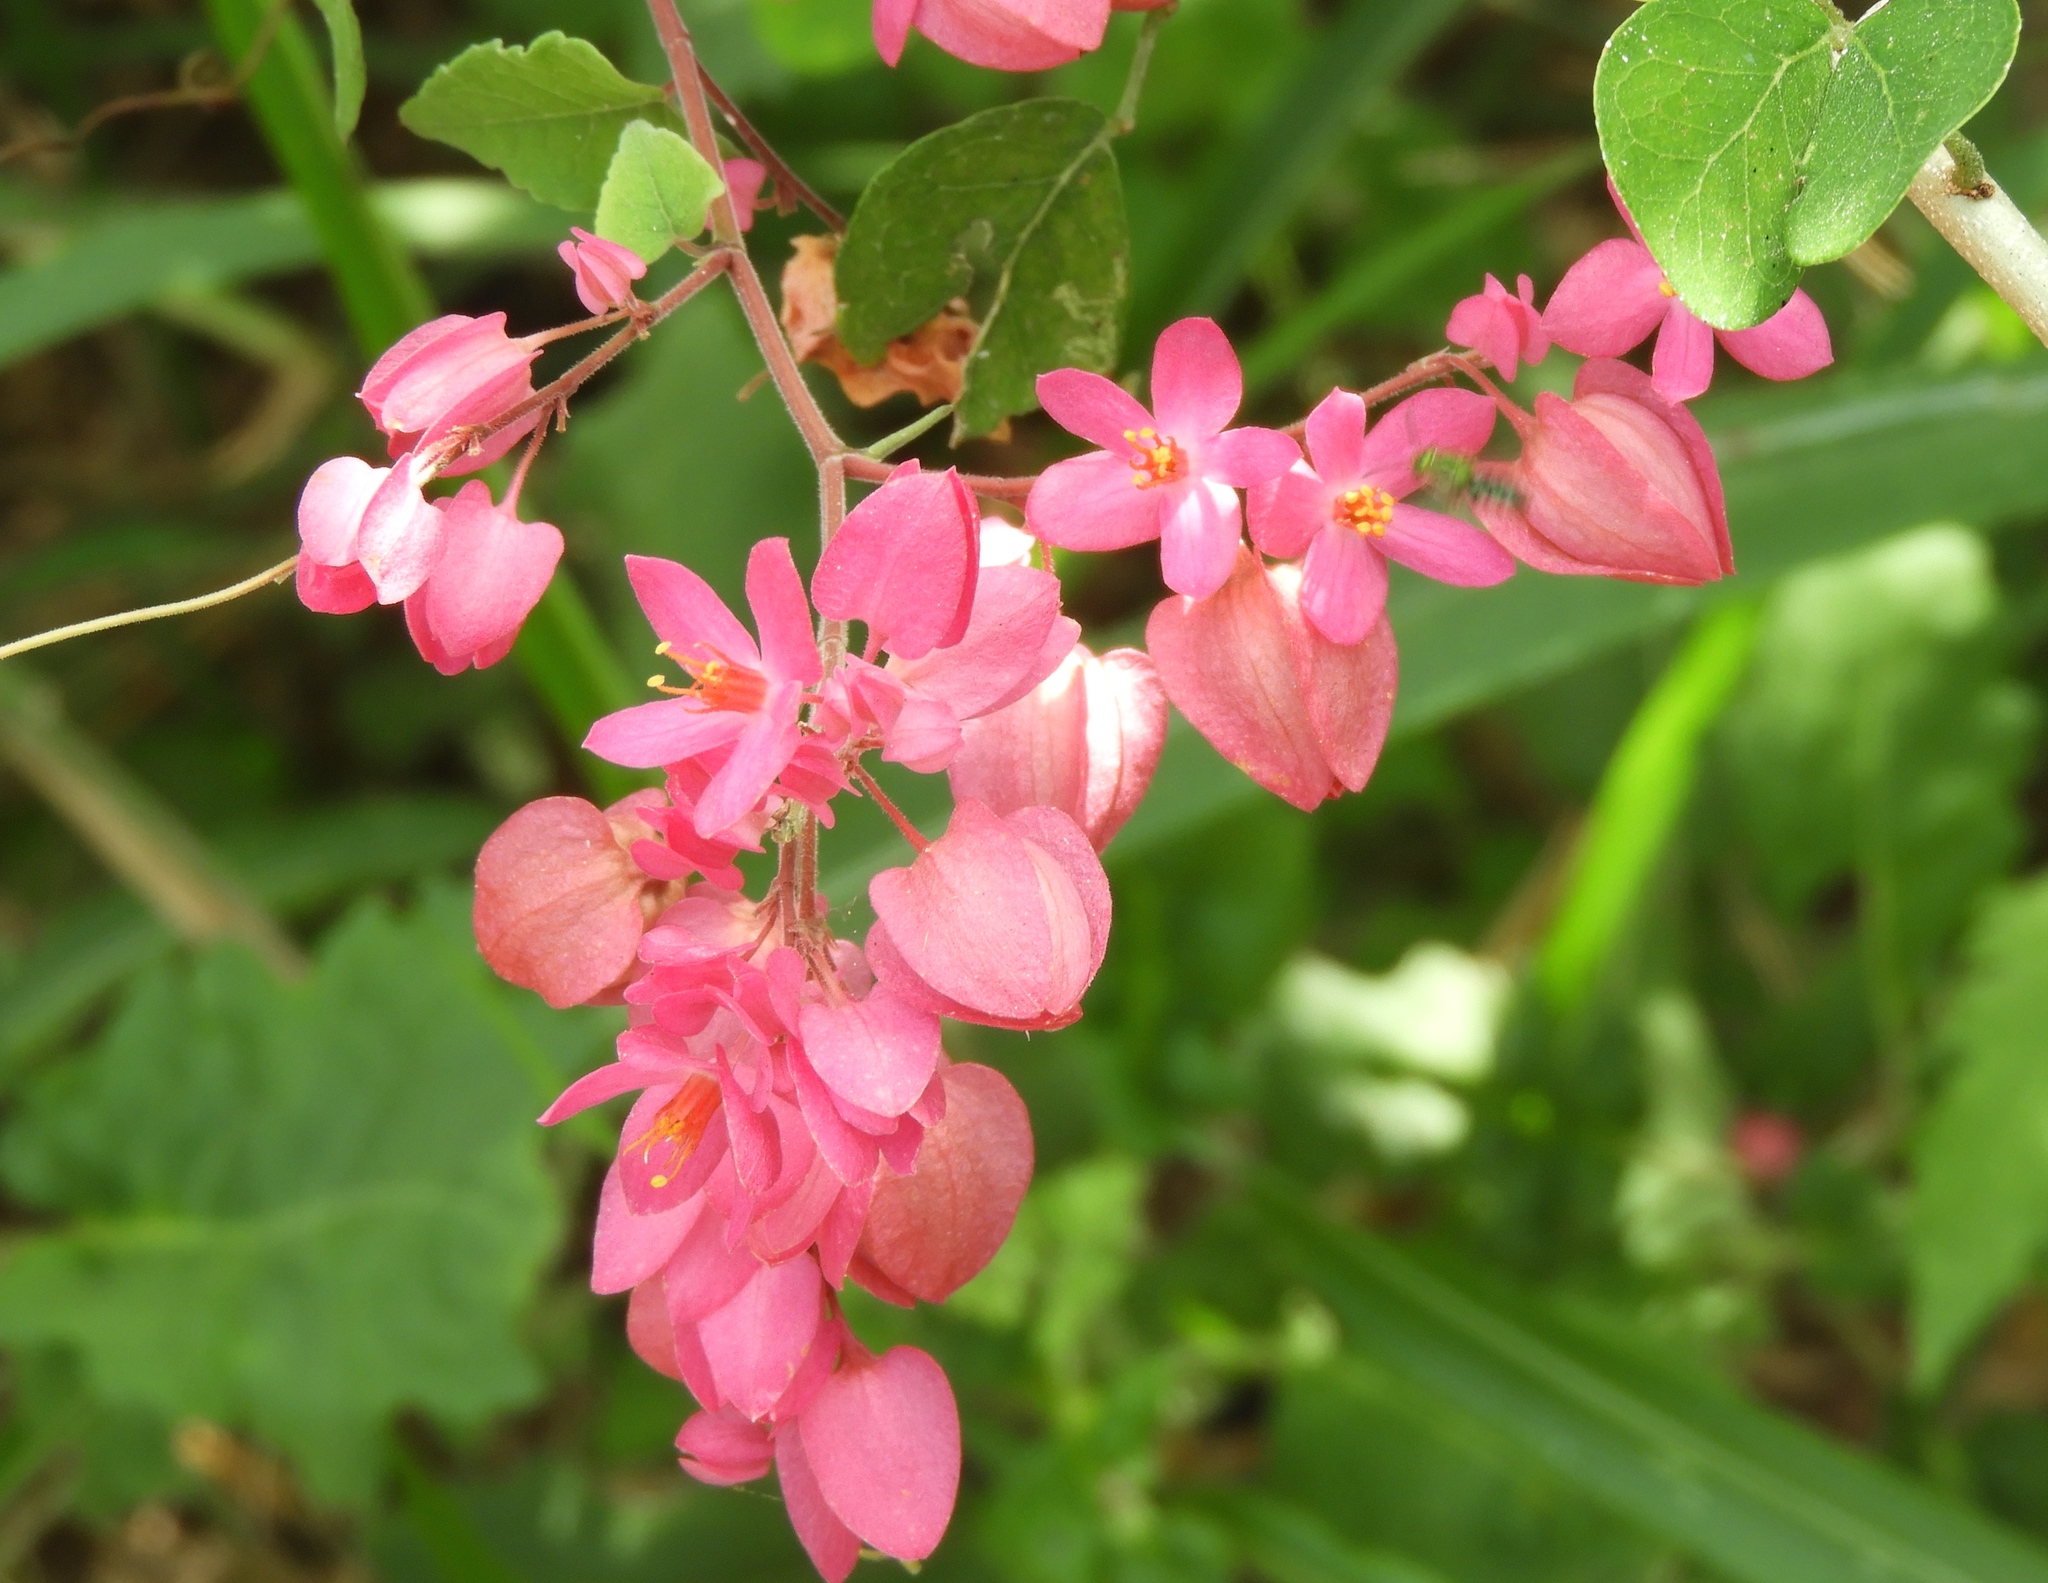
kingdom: Plantae
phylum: Tracheophyta
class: Magnoliopsida
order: Caryophyllales
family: Polygonaceae
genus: Antigonon
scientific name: Antigonon leptopus
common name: Coral vine
